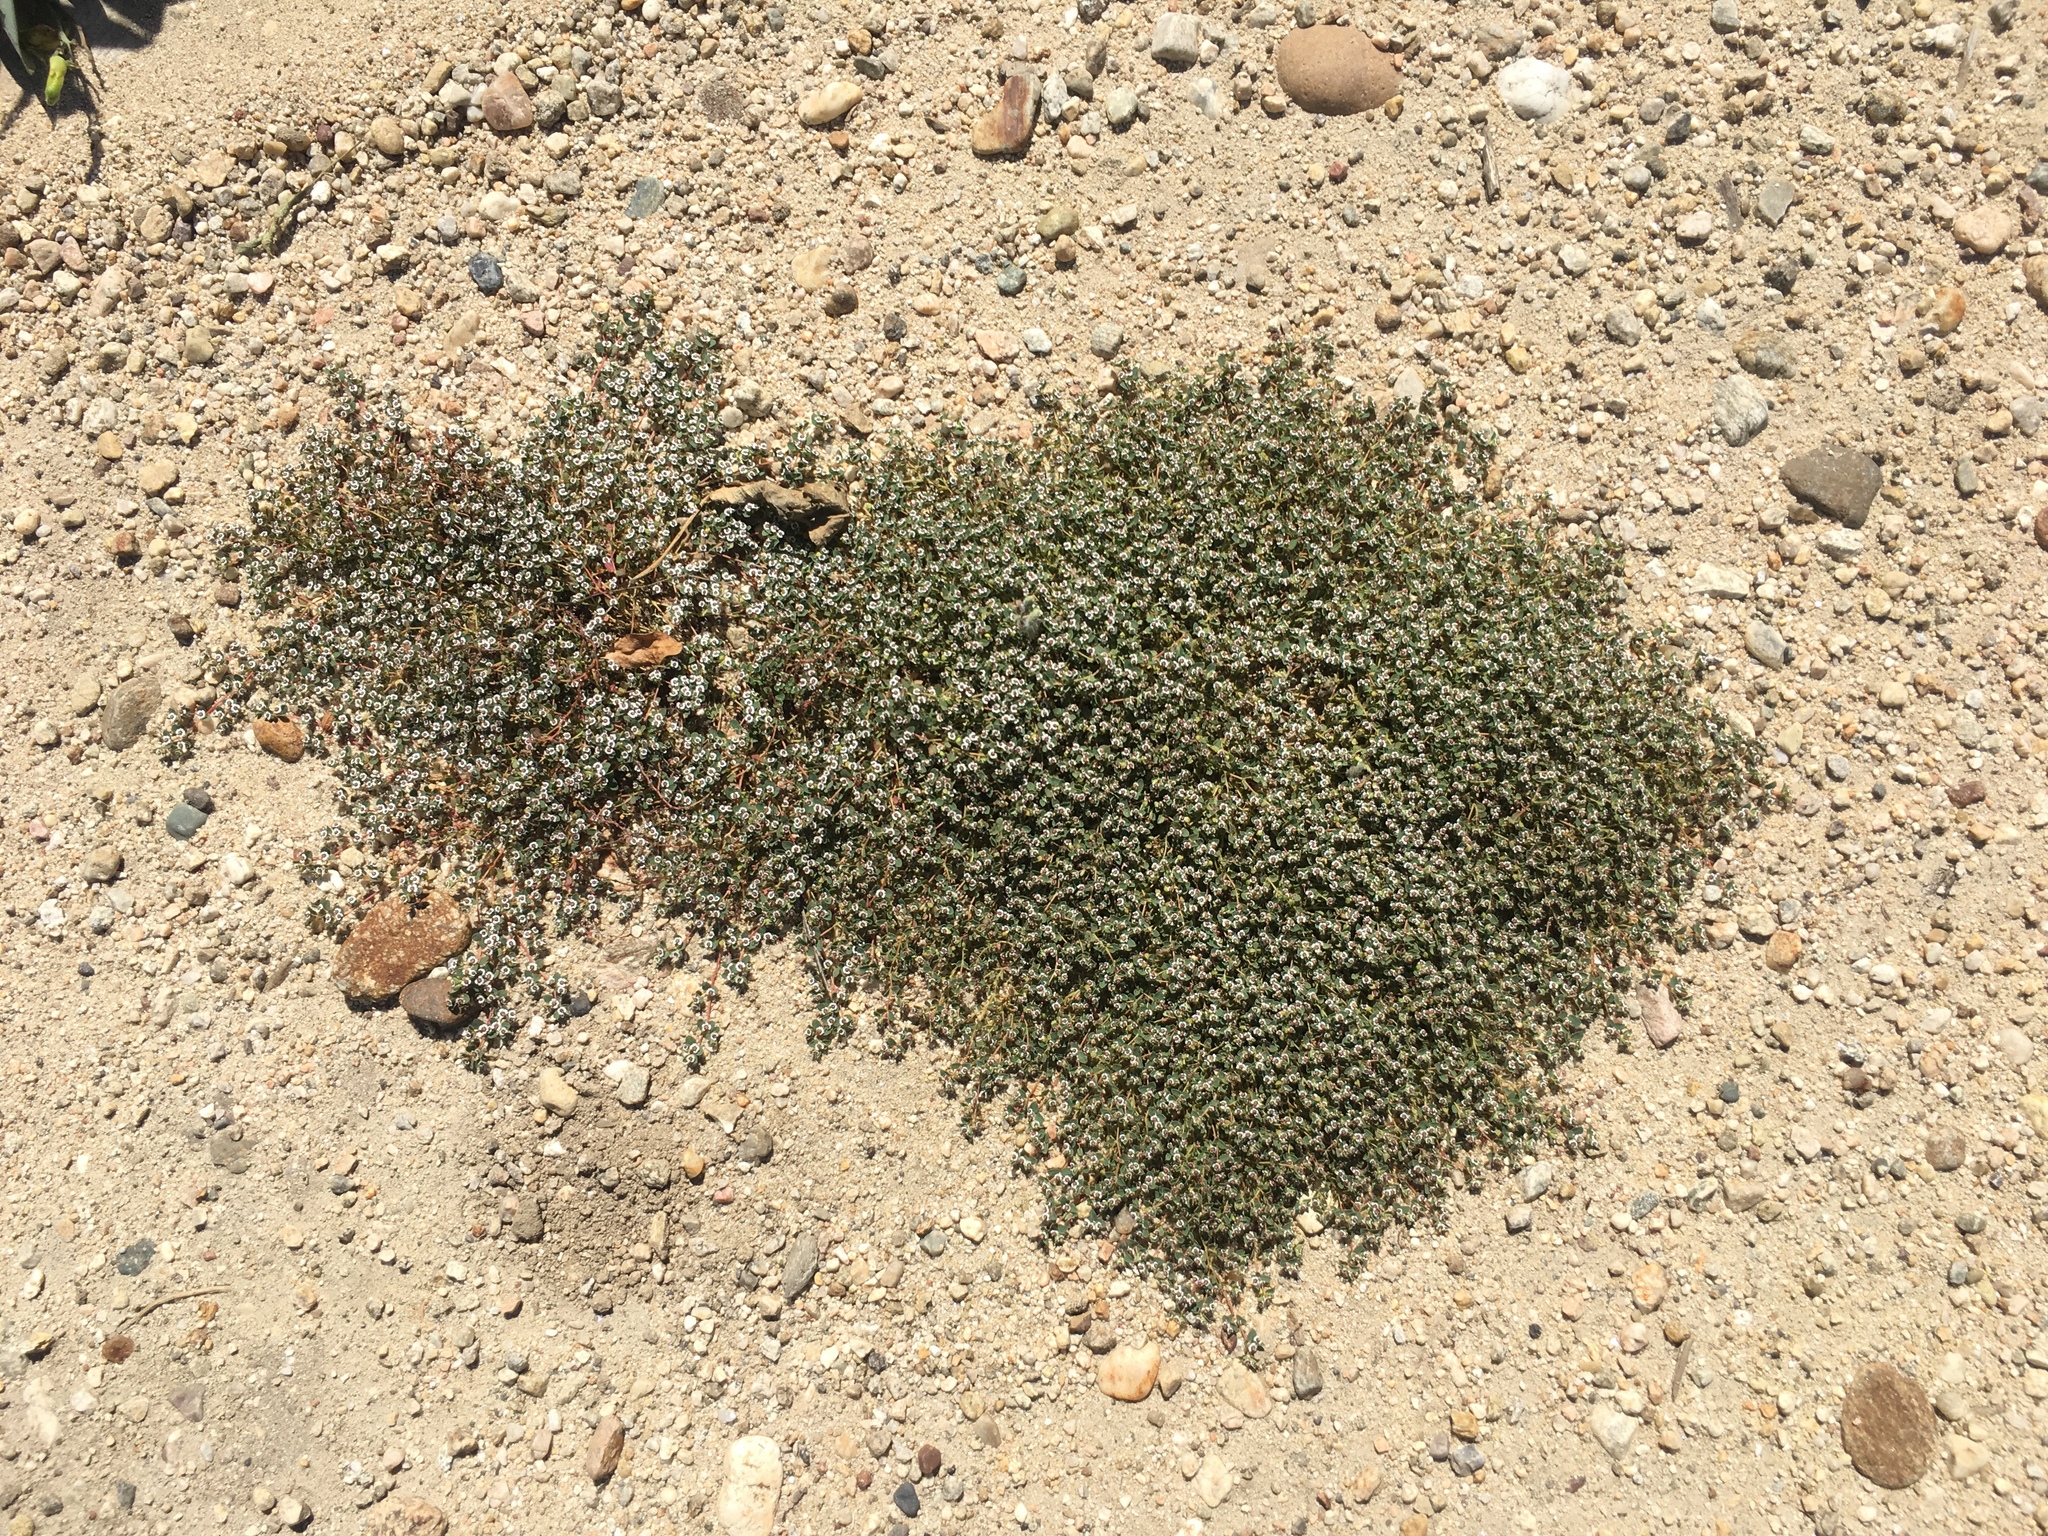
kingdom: Plantae
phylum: Tracheophyta
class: Magnoliopsida
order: Malpighiales
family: Euphorbiaceae
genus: Euphorbia
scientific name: Euphorbia polycarpa
